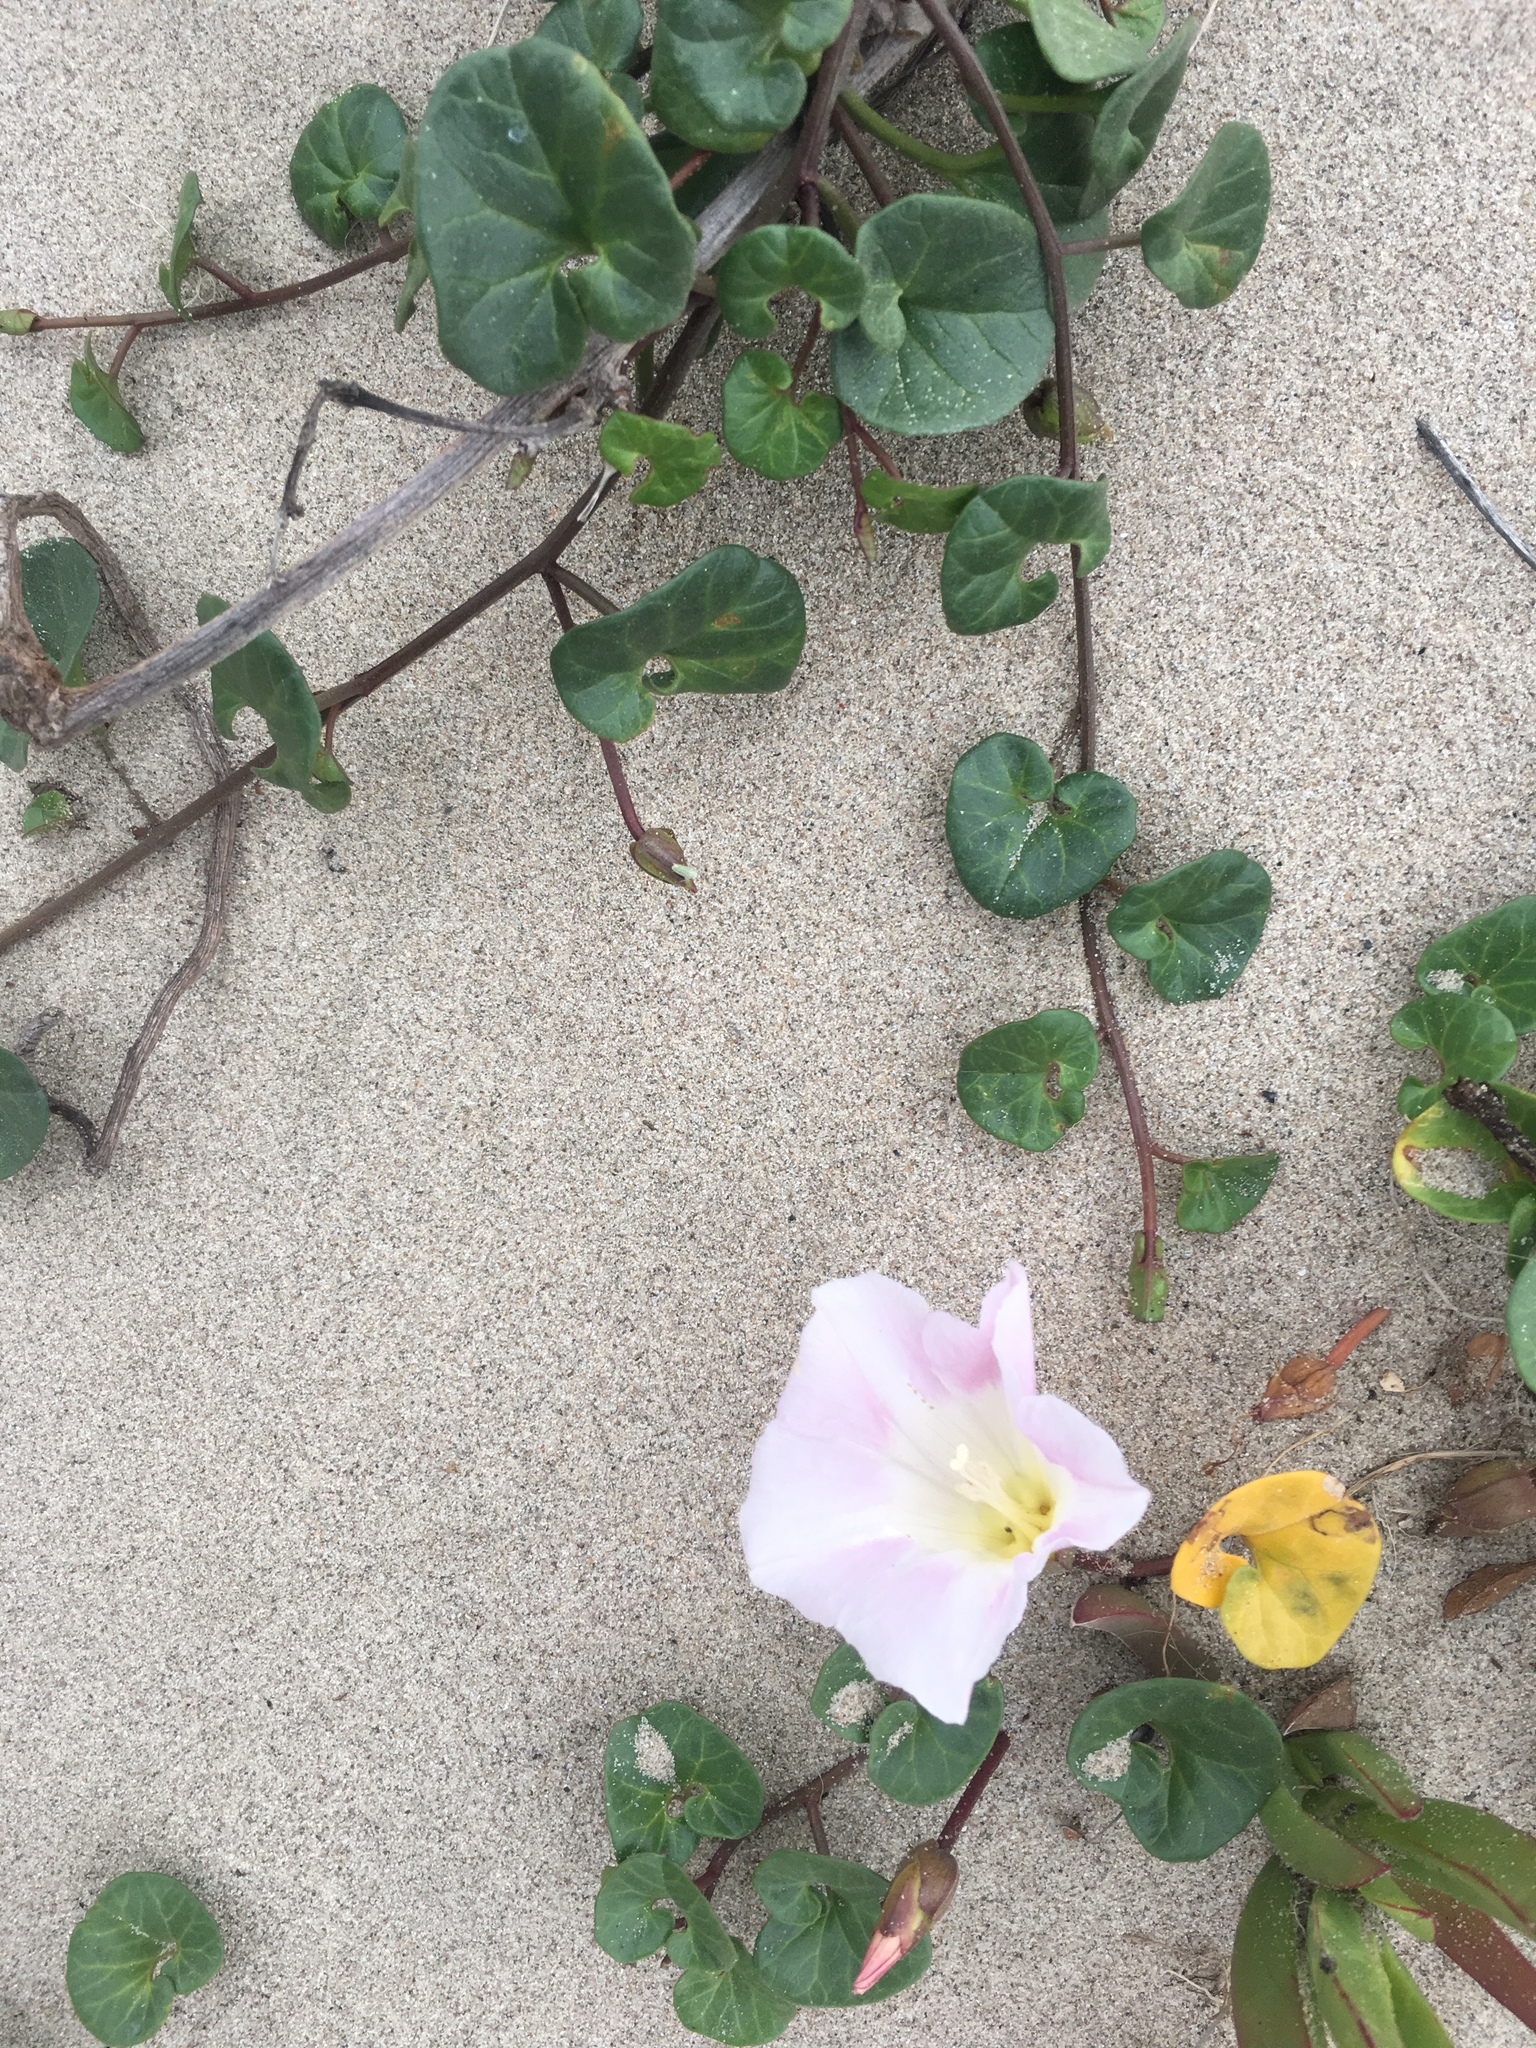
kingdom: Plantae
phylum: Tracheophyta
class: Magnoliopsida
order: Solanales
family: Convolvulaceae
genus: Calystegia
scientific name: Calystegia soldanella
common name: Sea bindweed
